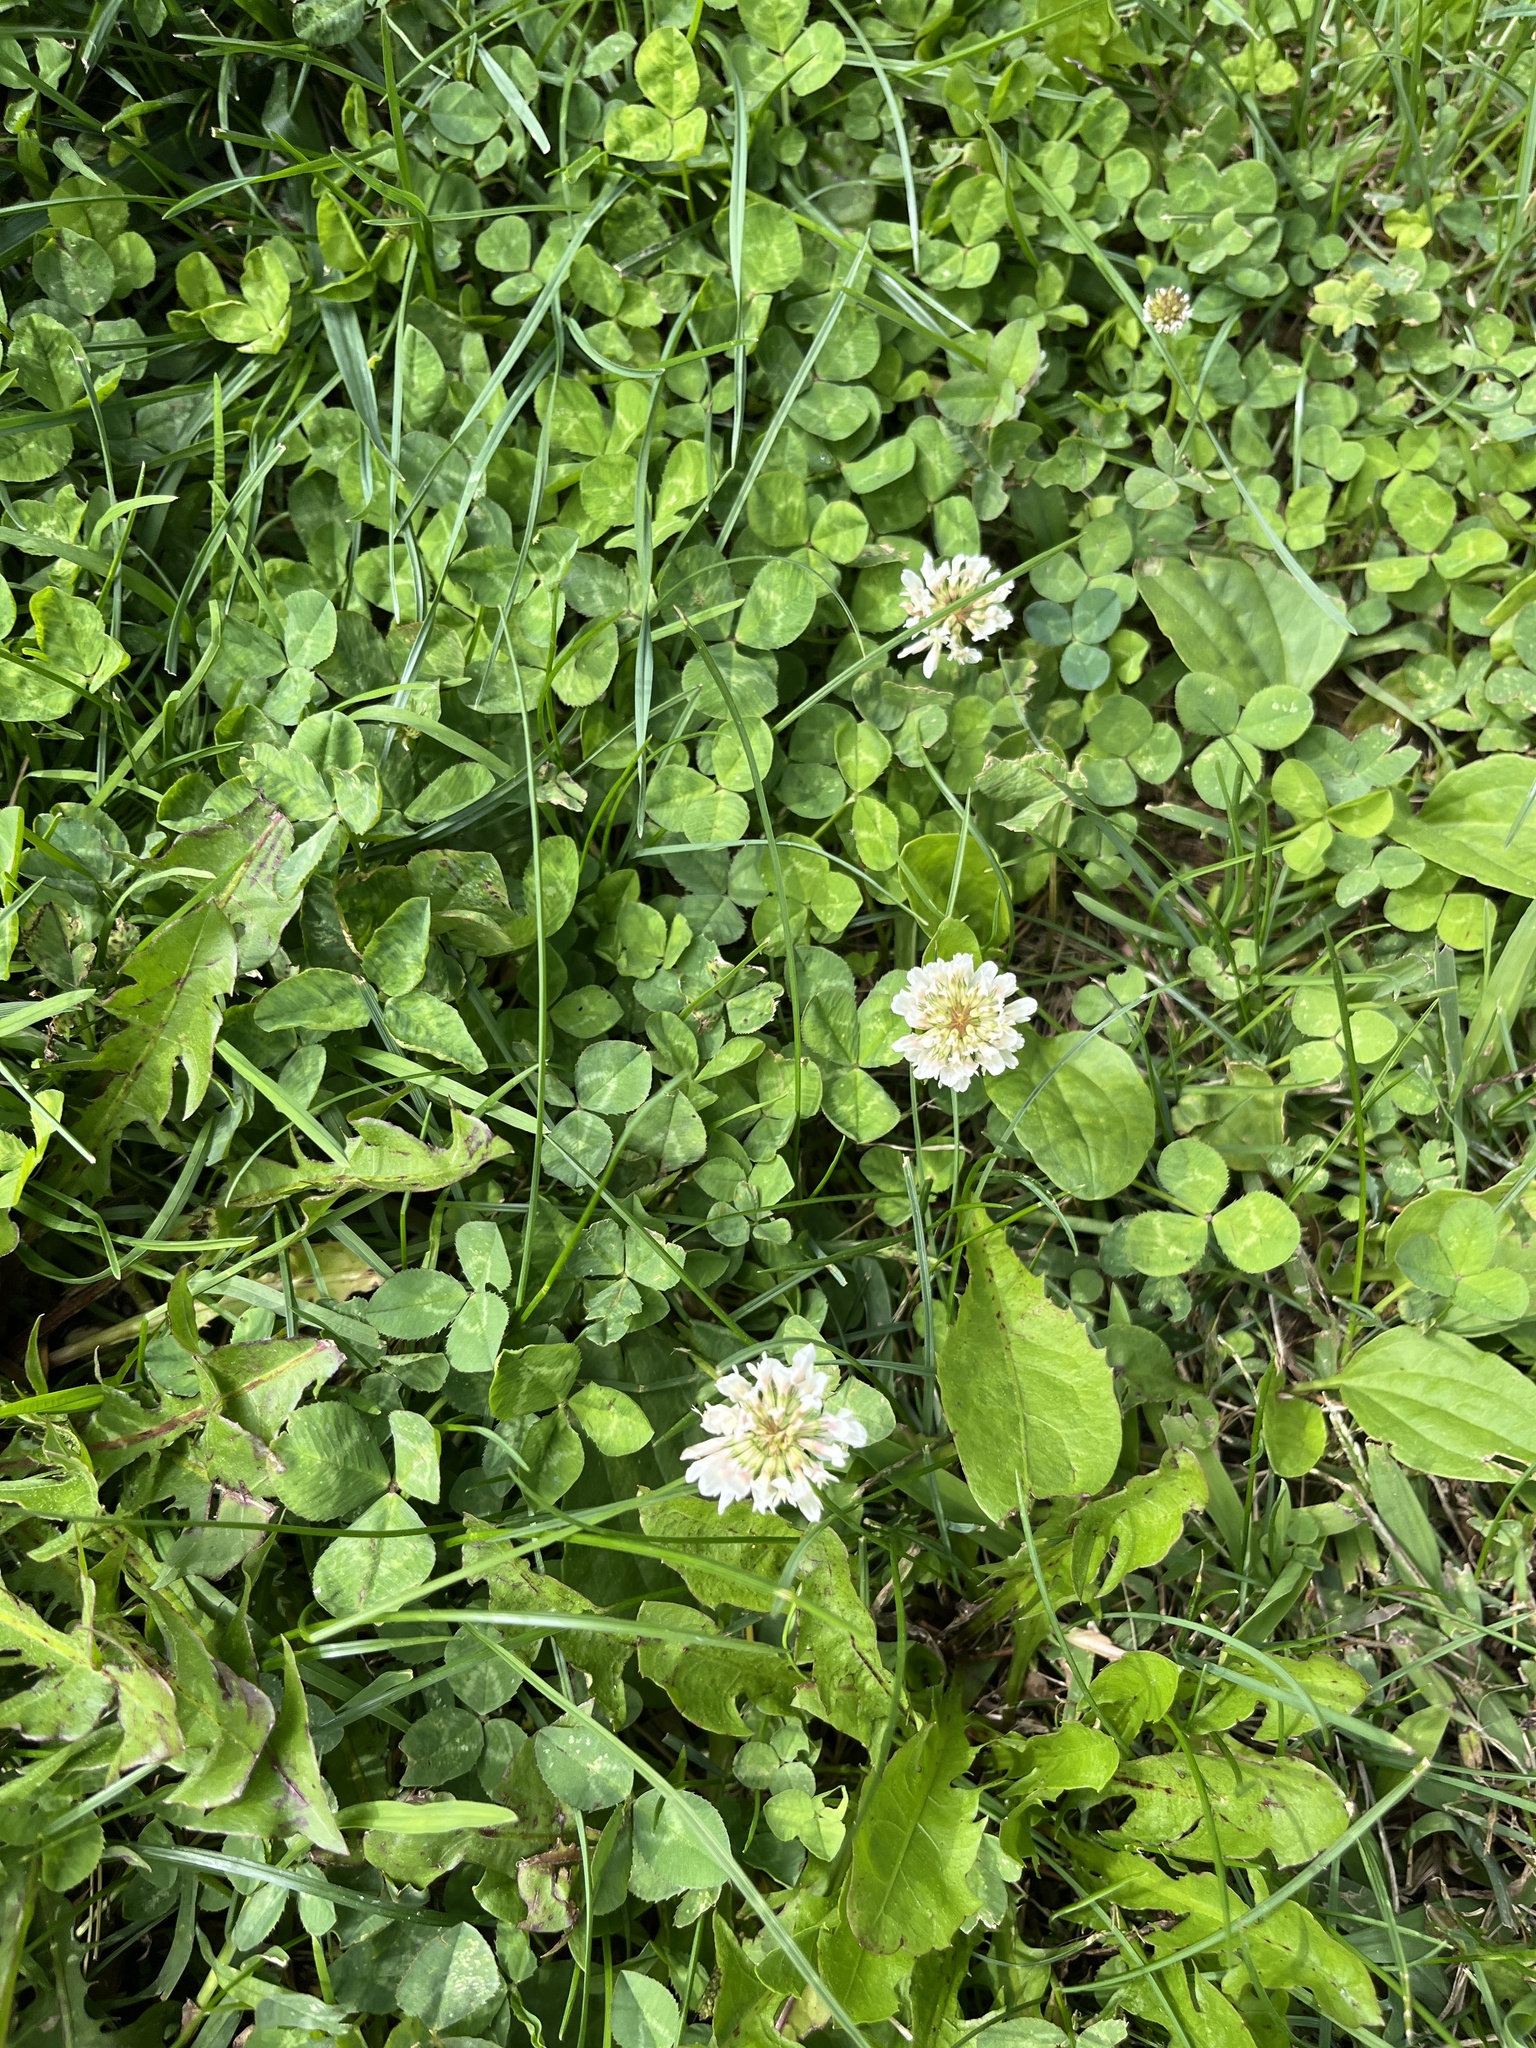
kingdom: Plantae
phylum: Tracheophyta
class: Magnoliopsida
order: Fabales
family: Fabaceae
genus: Trifolium
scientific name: Trifolium repens
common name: White clover
